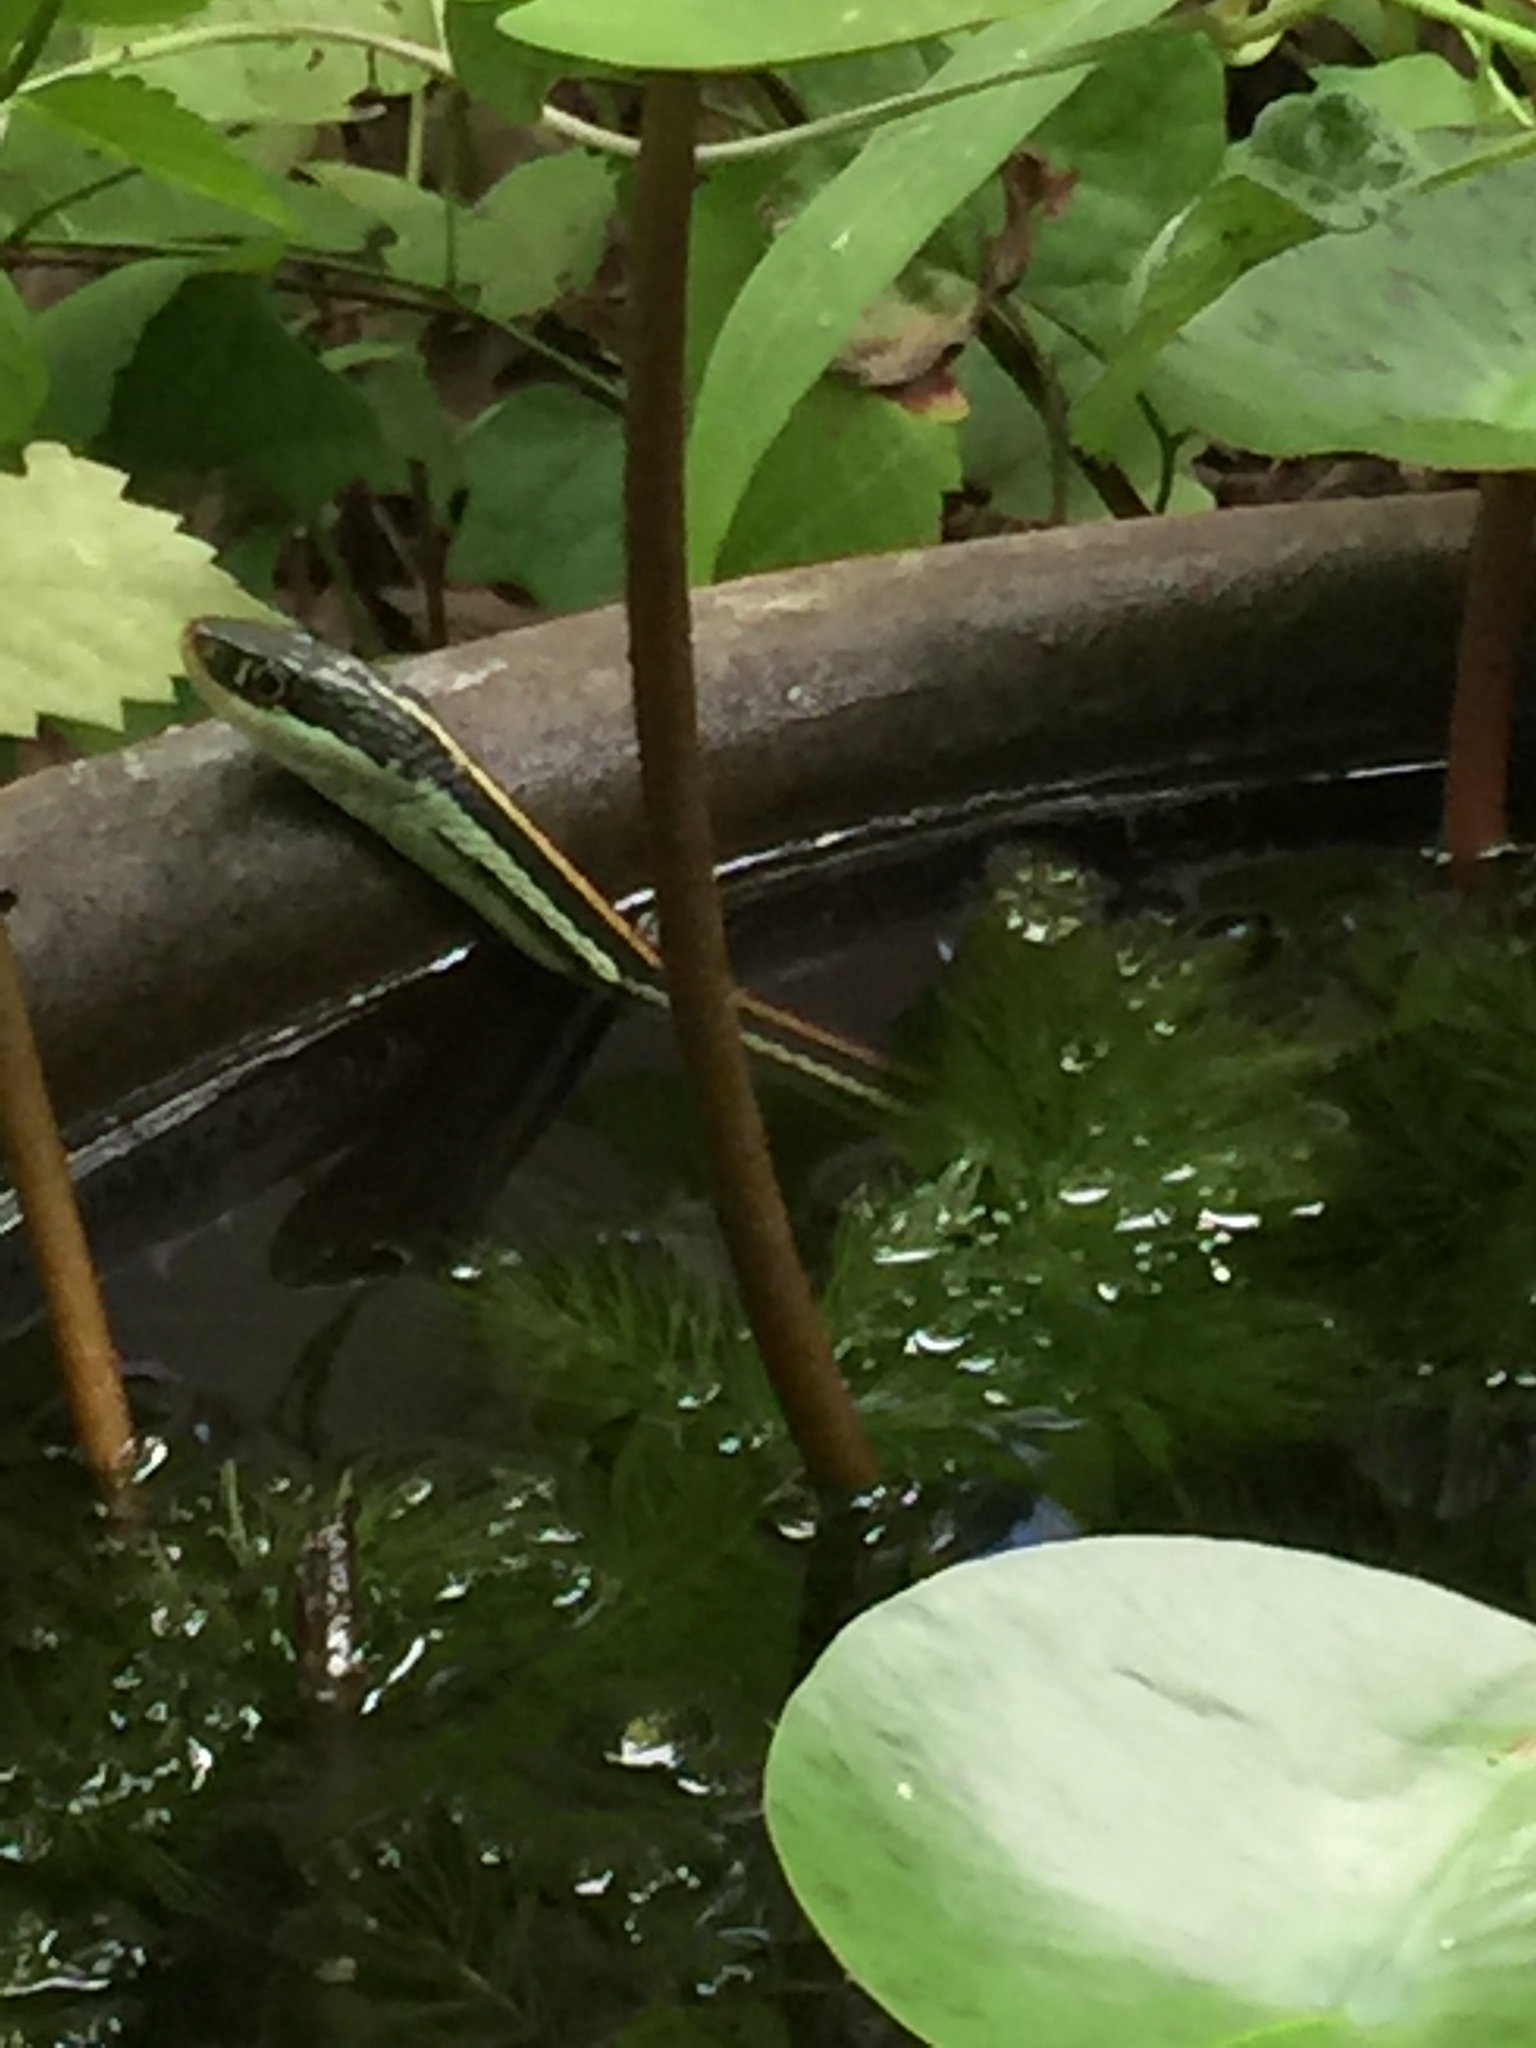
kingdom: Animalia
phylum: Chordata
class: Squamata
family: Colubridae
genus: Thamnophis
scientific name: Thamnophis proximus
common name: Western ribbon snake
